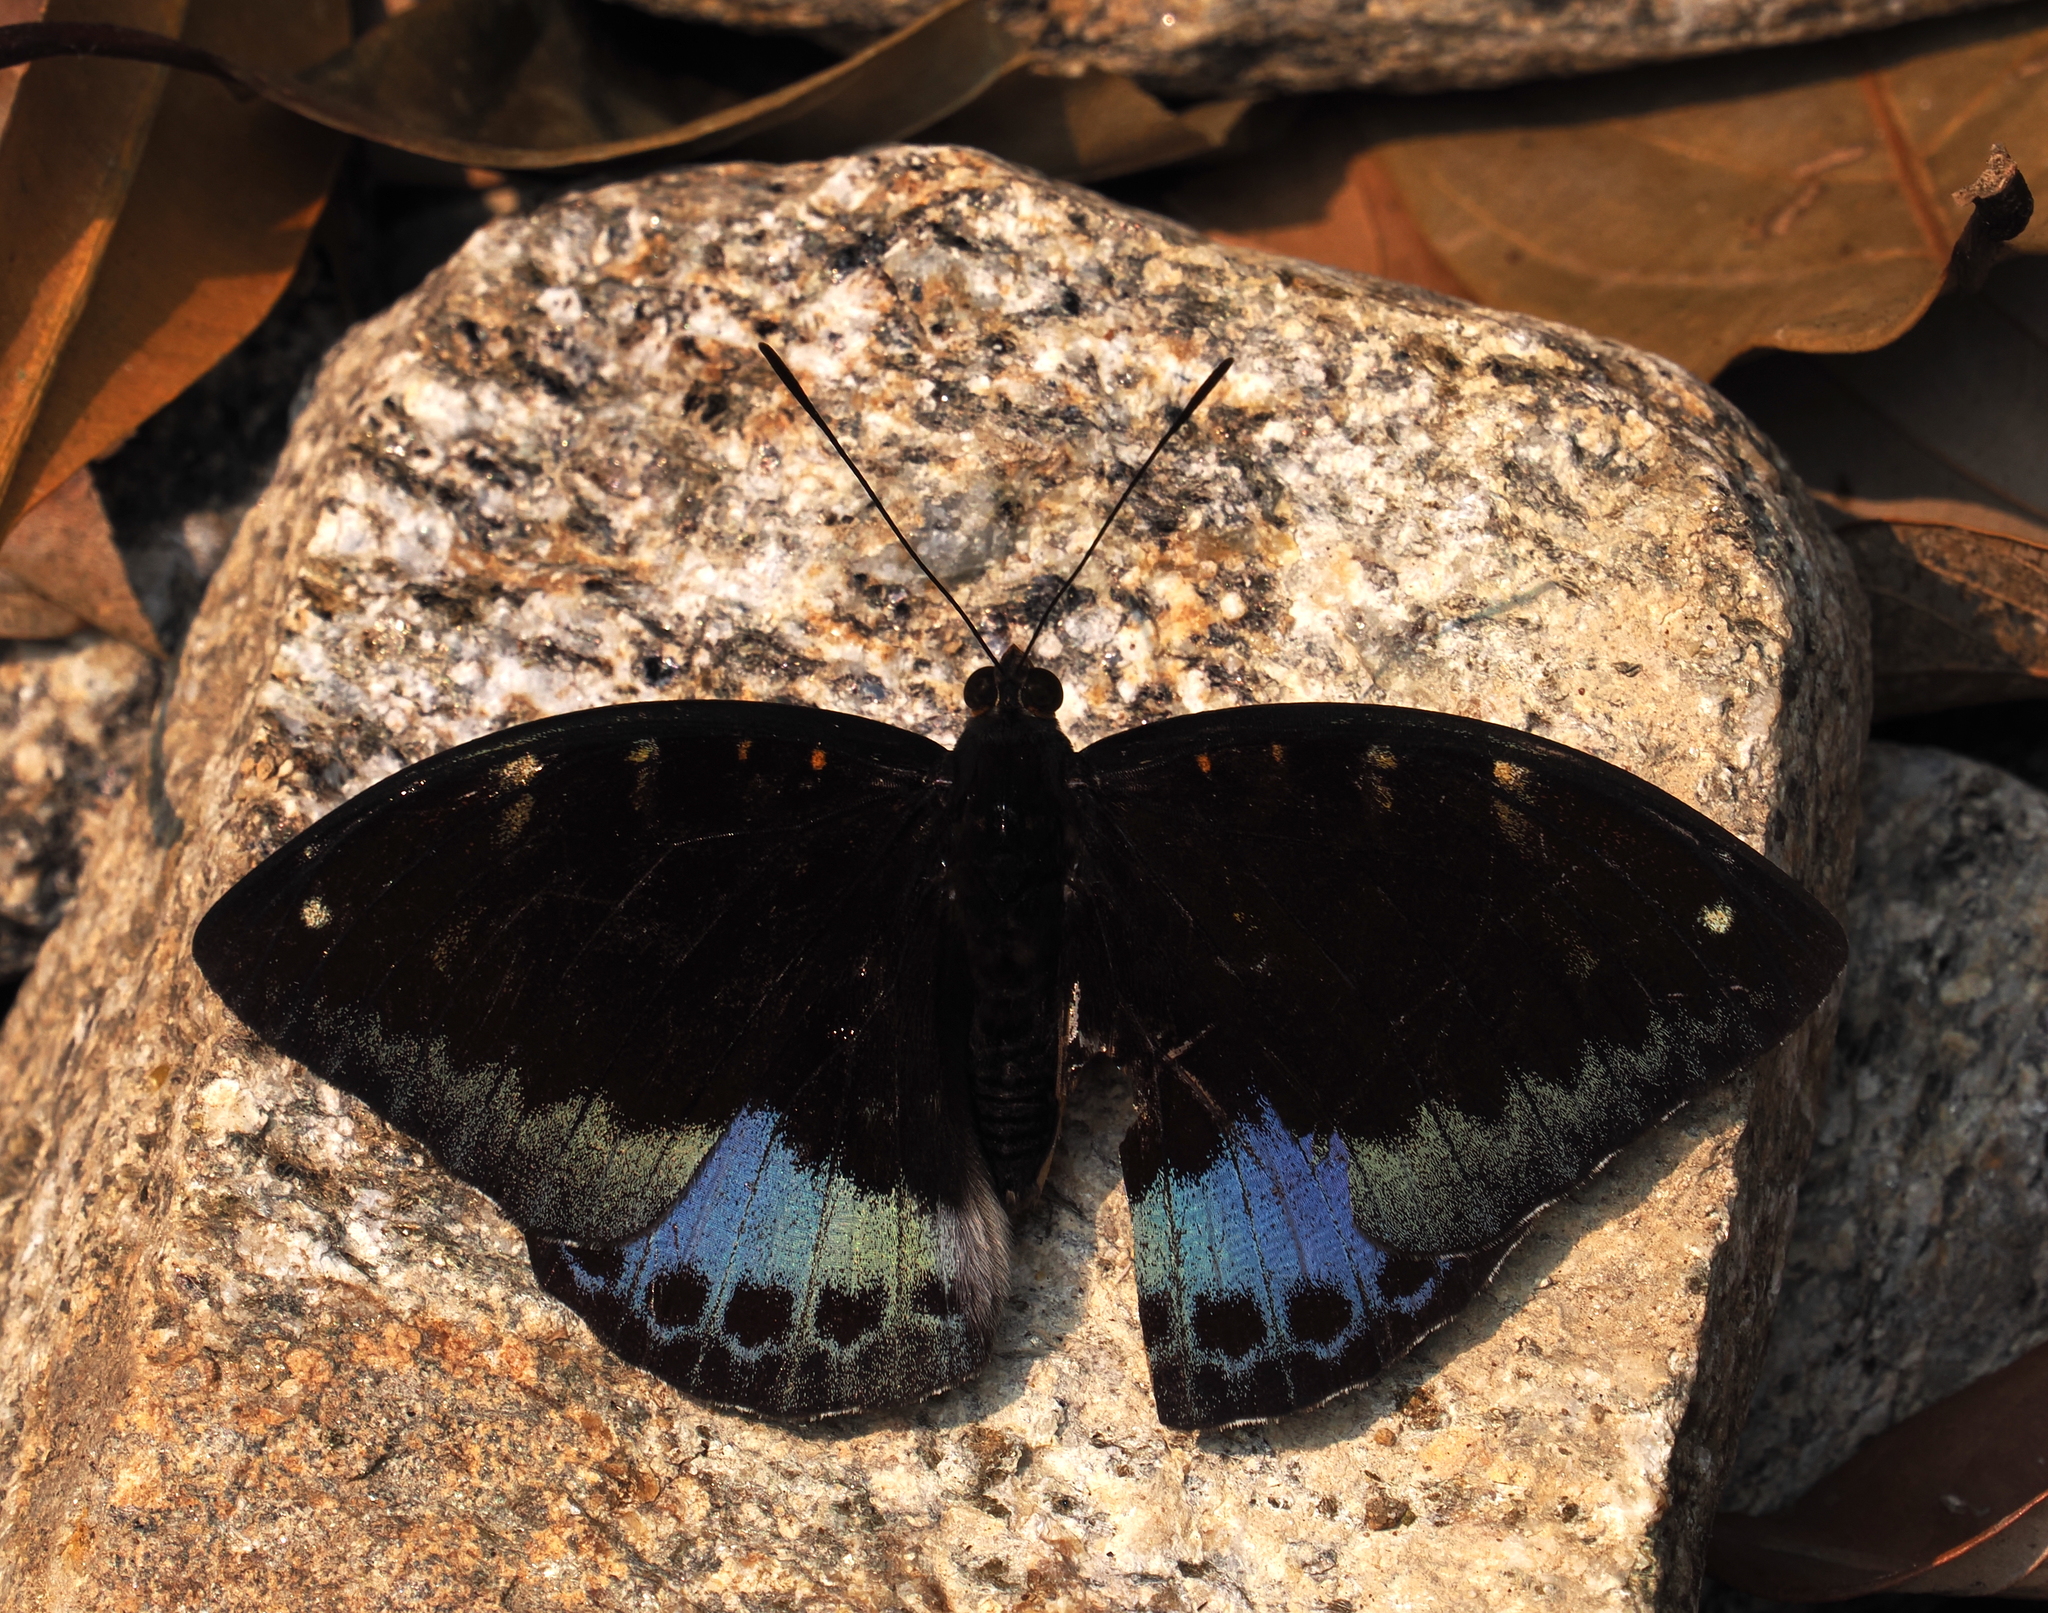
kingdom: Animalia
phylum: Arthropoda
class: Insecta
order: Lepidoptera
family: Nymphalidae
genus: Lexias
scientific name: Lexias dirtea
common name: Black-tipped archduke
